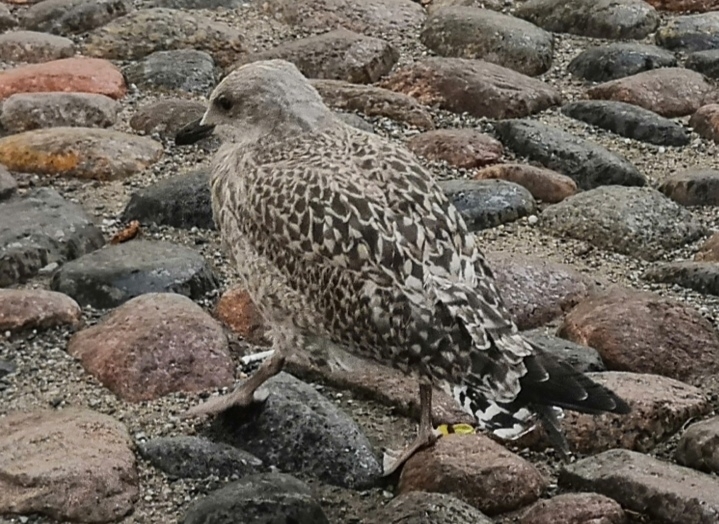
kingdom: Animalia
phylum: Chordata
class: Aves
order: Charadriiformes
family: Laridae
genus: Larus
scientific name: Larus argentatus
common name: Herring gull
